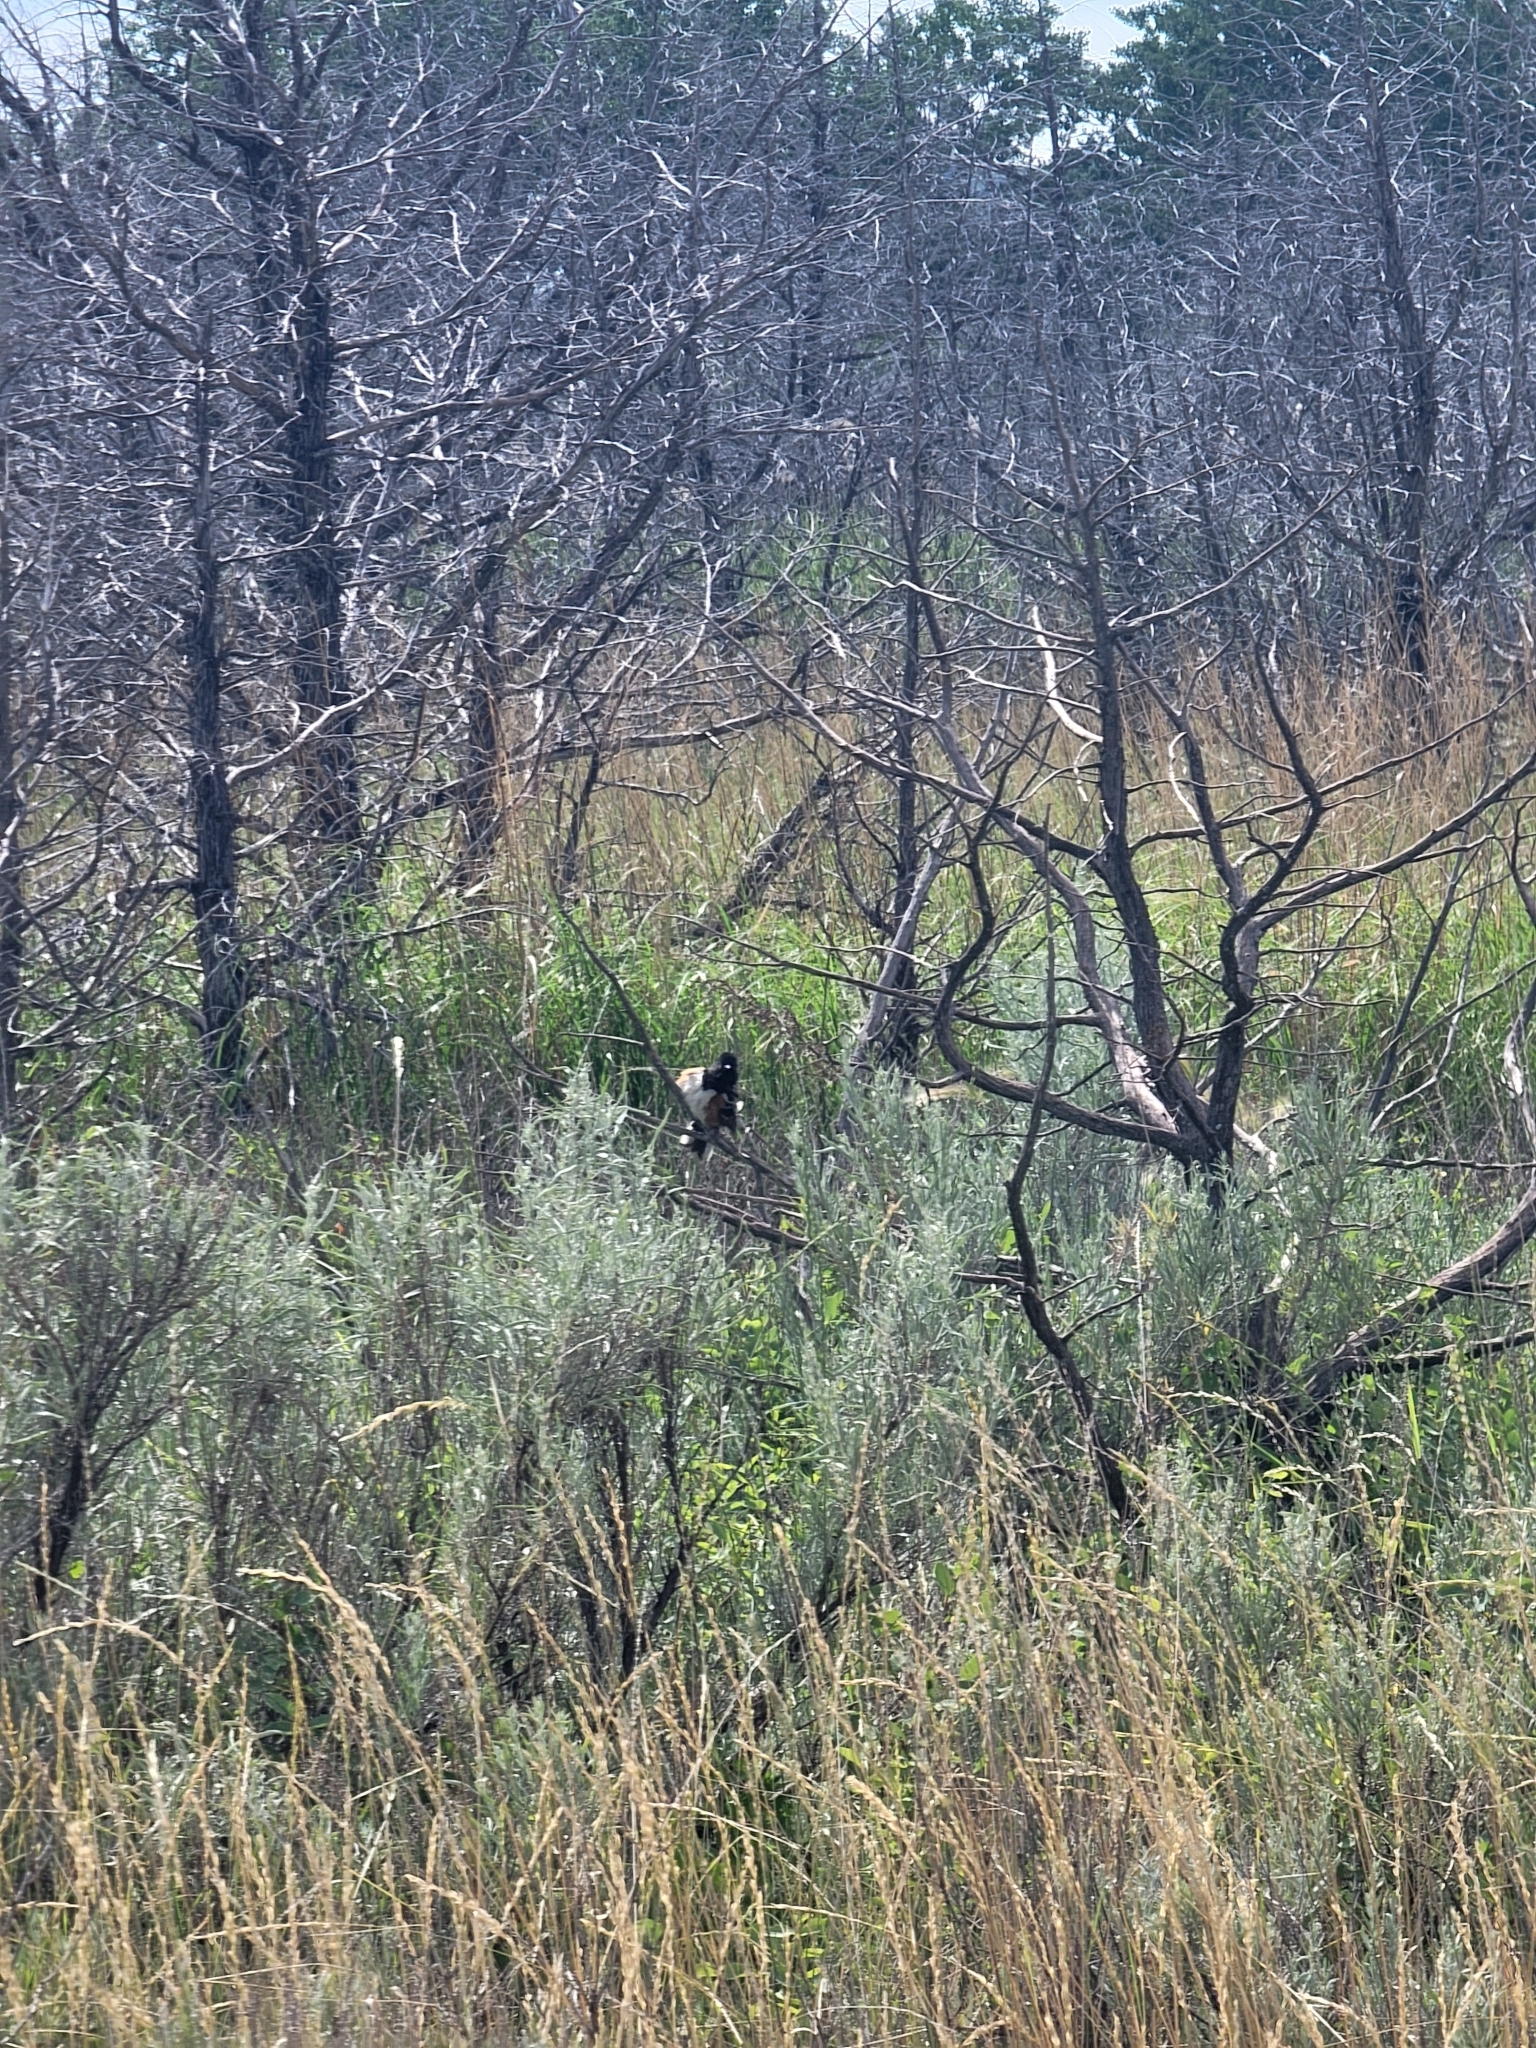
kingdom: Animalia
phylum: Chordata
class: Aves
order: Passeriformes
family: Passerellidae
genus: Pipilo
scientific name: Pipilo maculatus
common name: Spotted towhee
